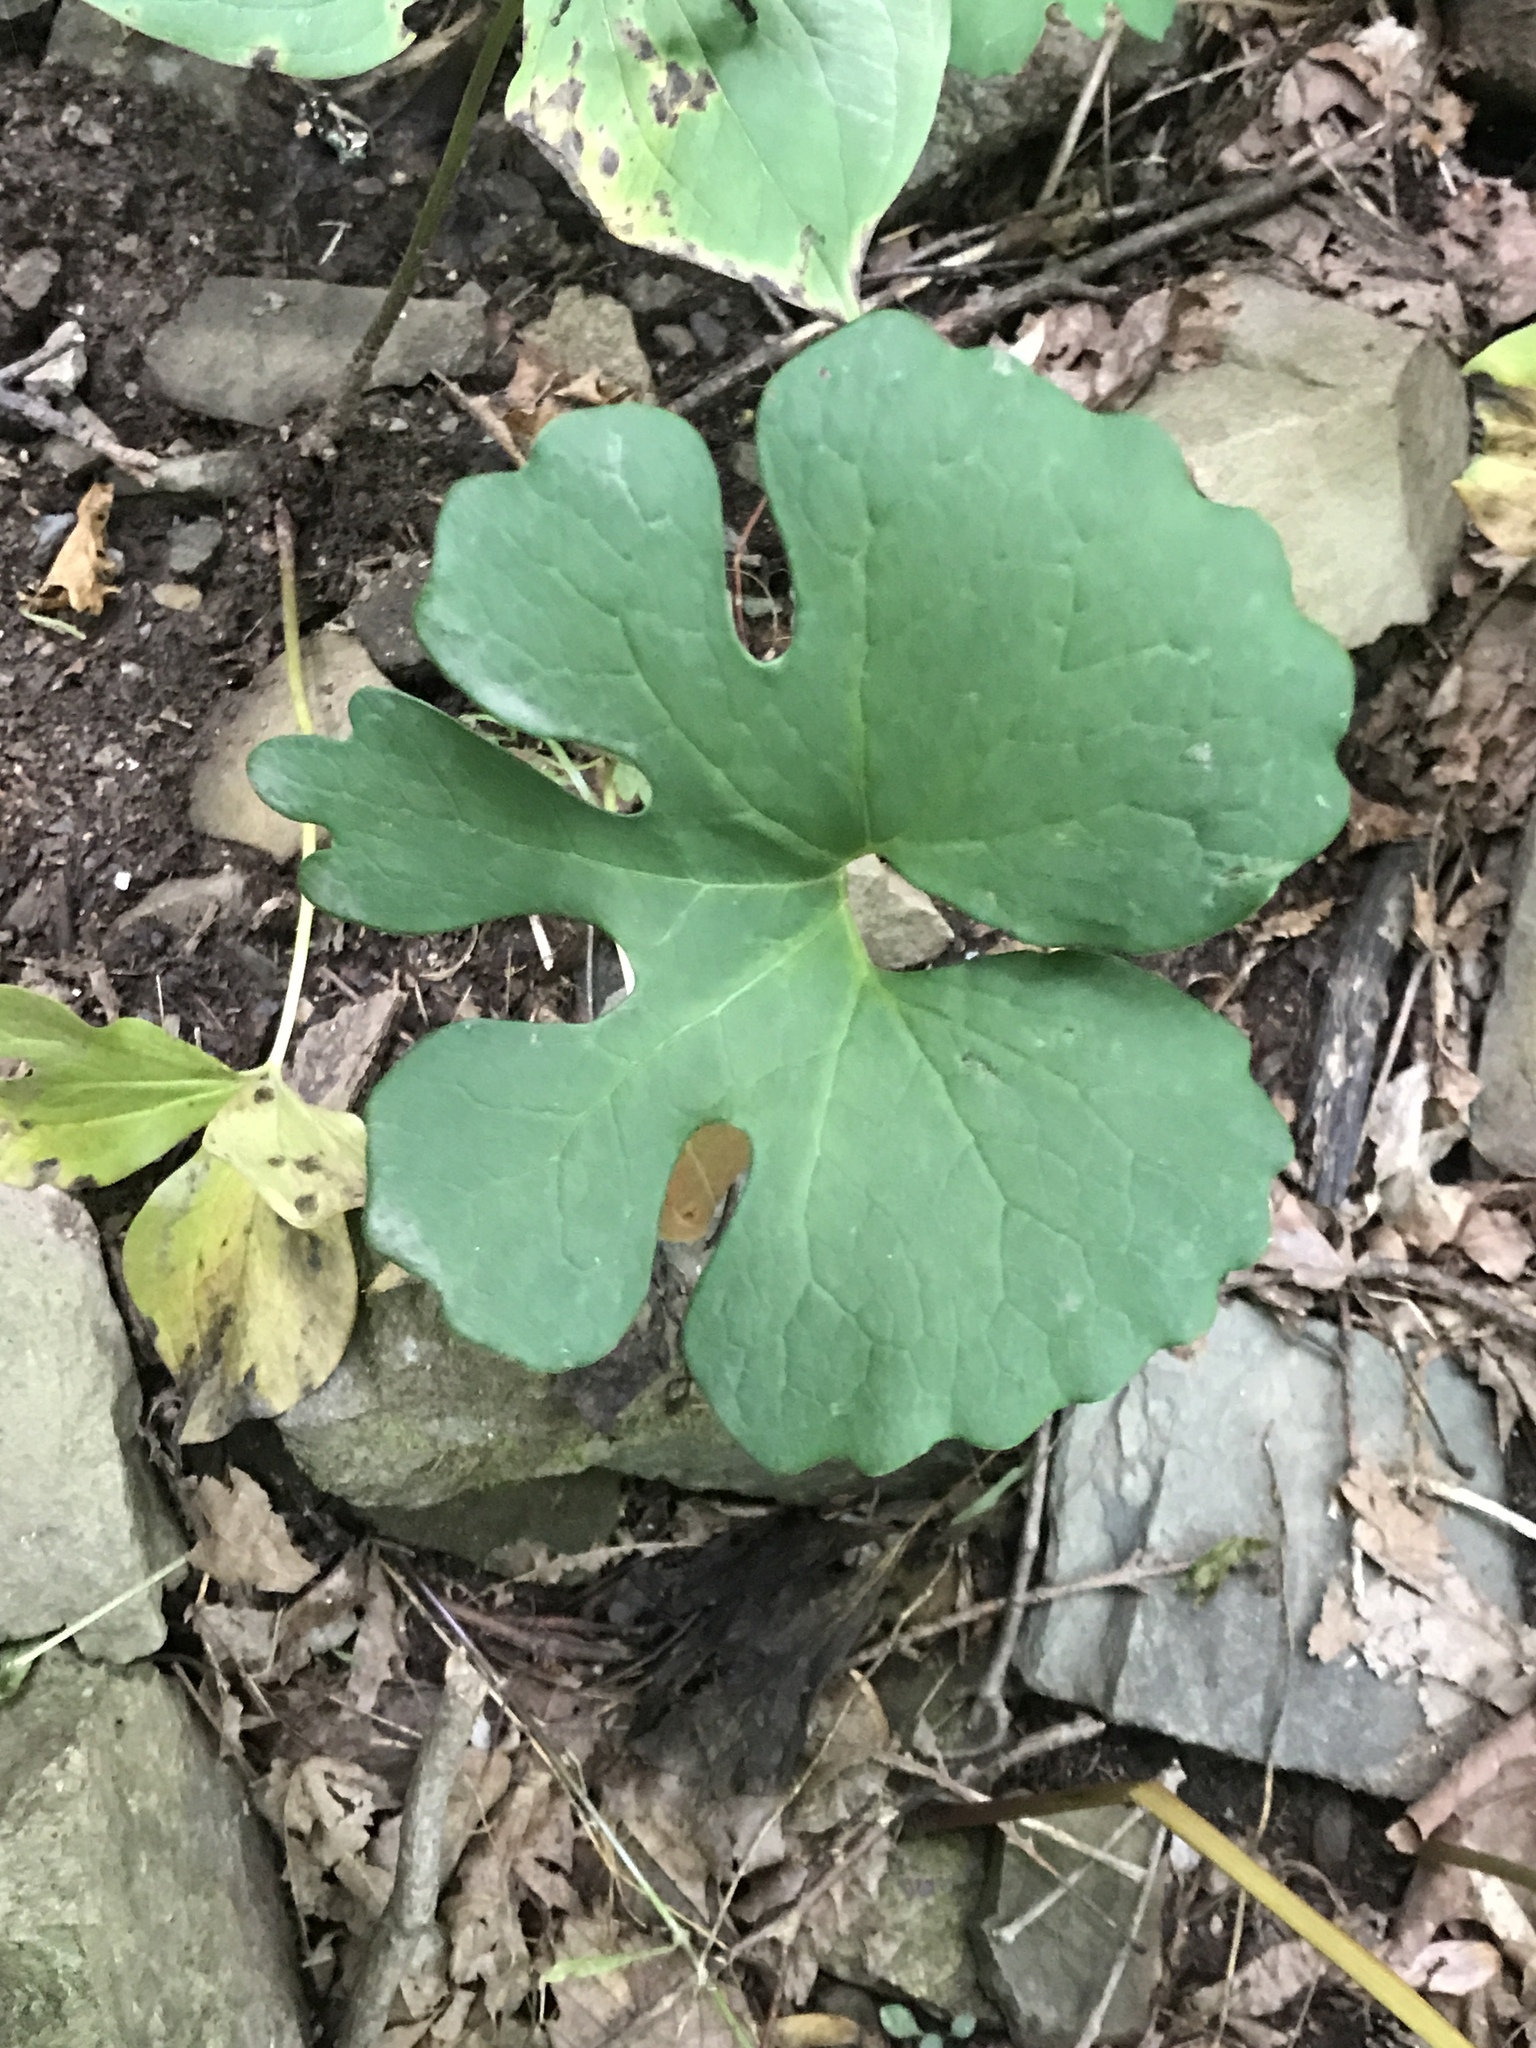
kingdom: Plantae
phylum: Tracheophyta
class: Magnoliopsida
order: Ranunculales
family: Papaveraceae
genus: Sanguinaria
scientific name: Sanguinaria canadensis
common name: Bloodroot
